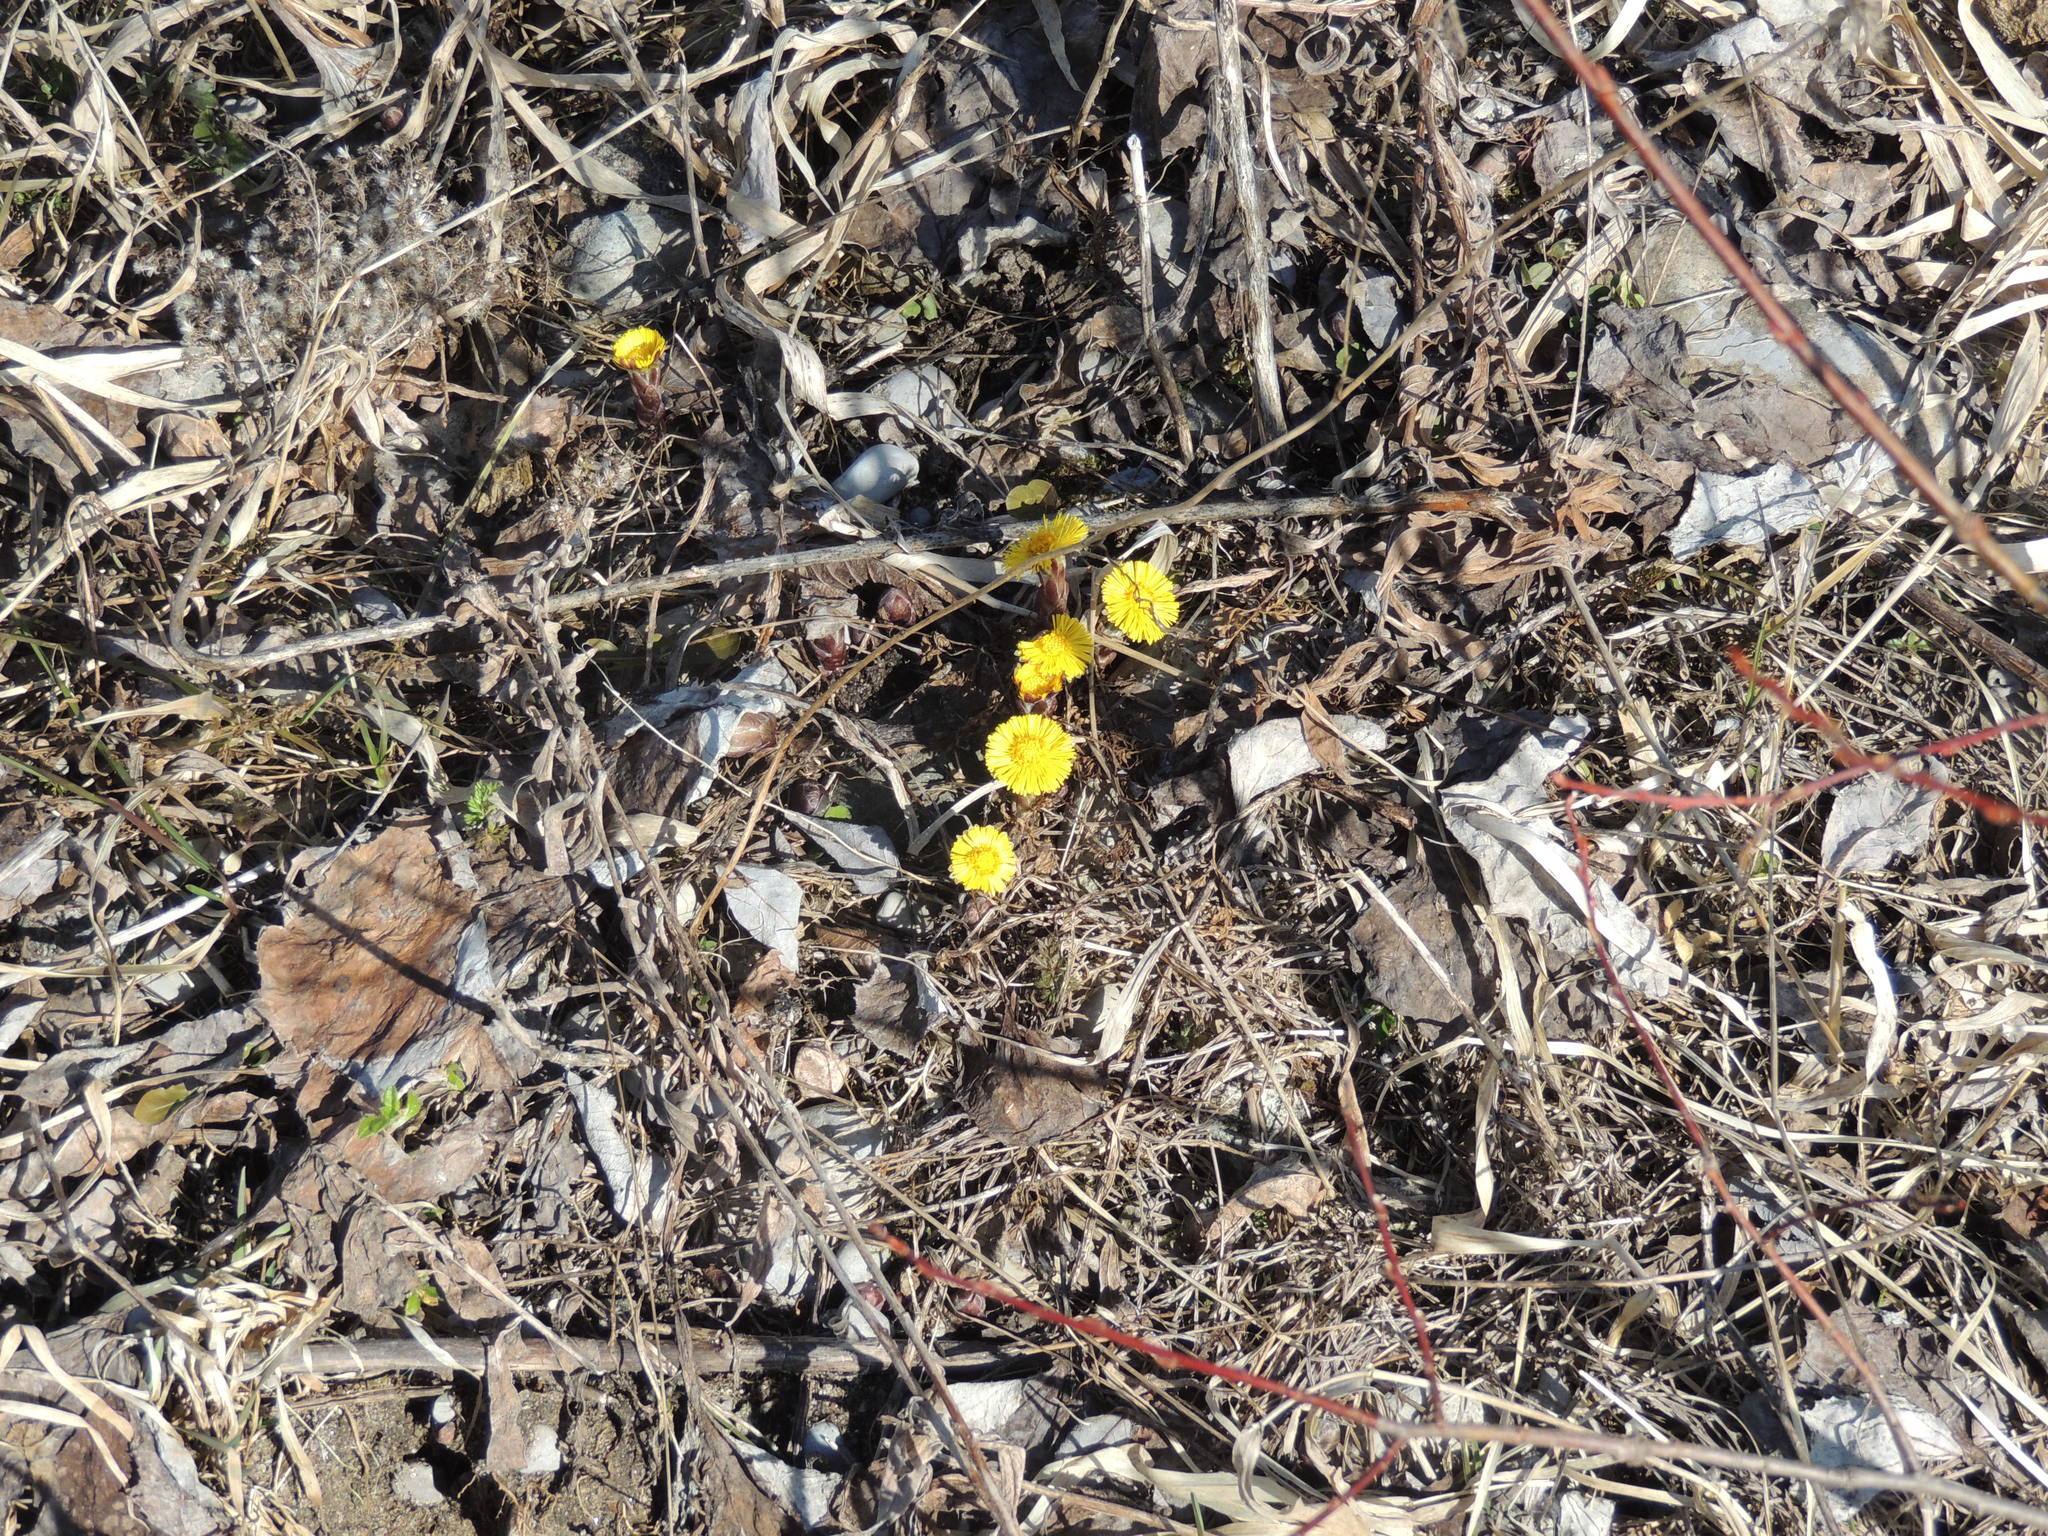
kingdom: Plantae
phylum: Tracheophyta
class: Magnoliopsida
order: Asterales
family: Asteraceae
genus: Tussilago
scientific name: Tussilago farfara
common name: Coltsfoot
